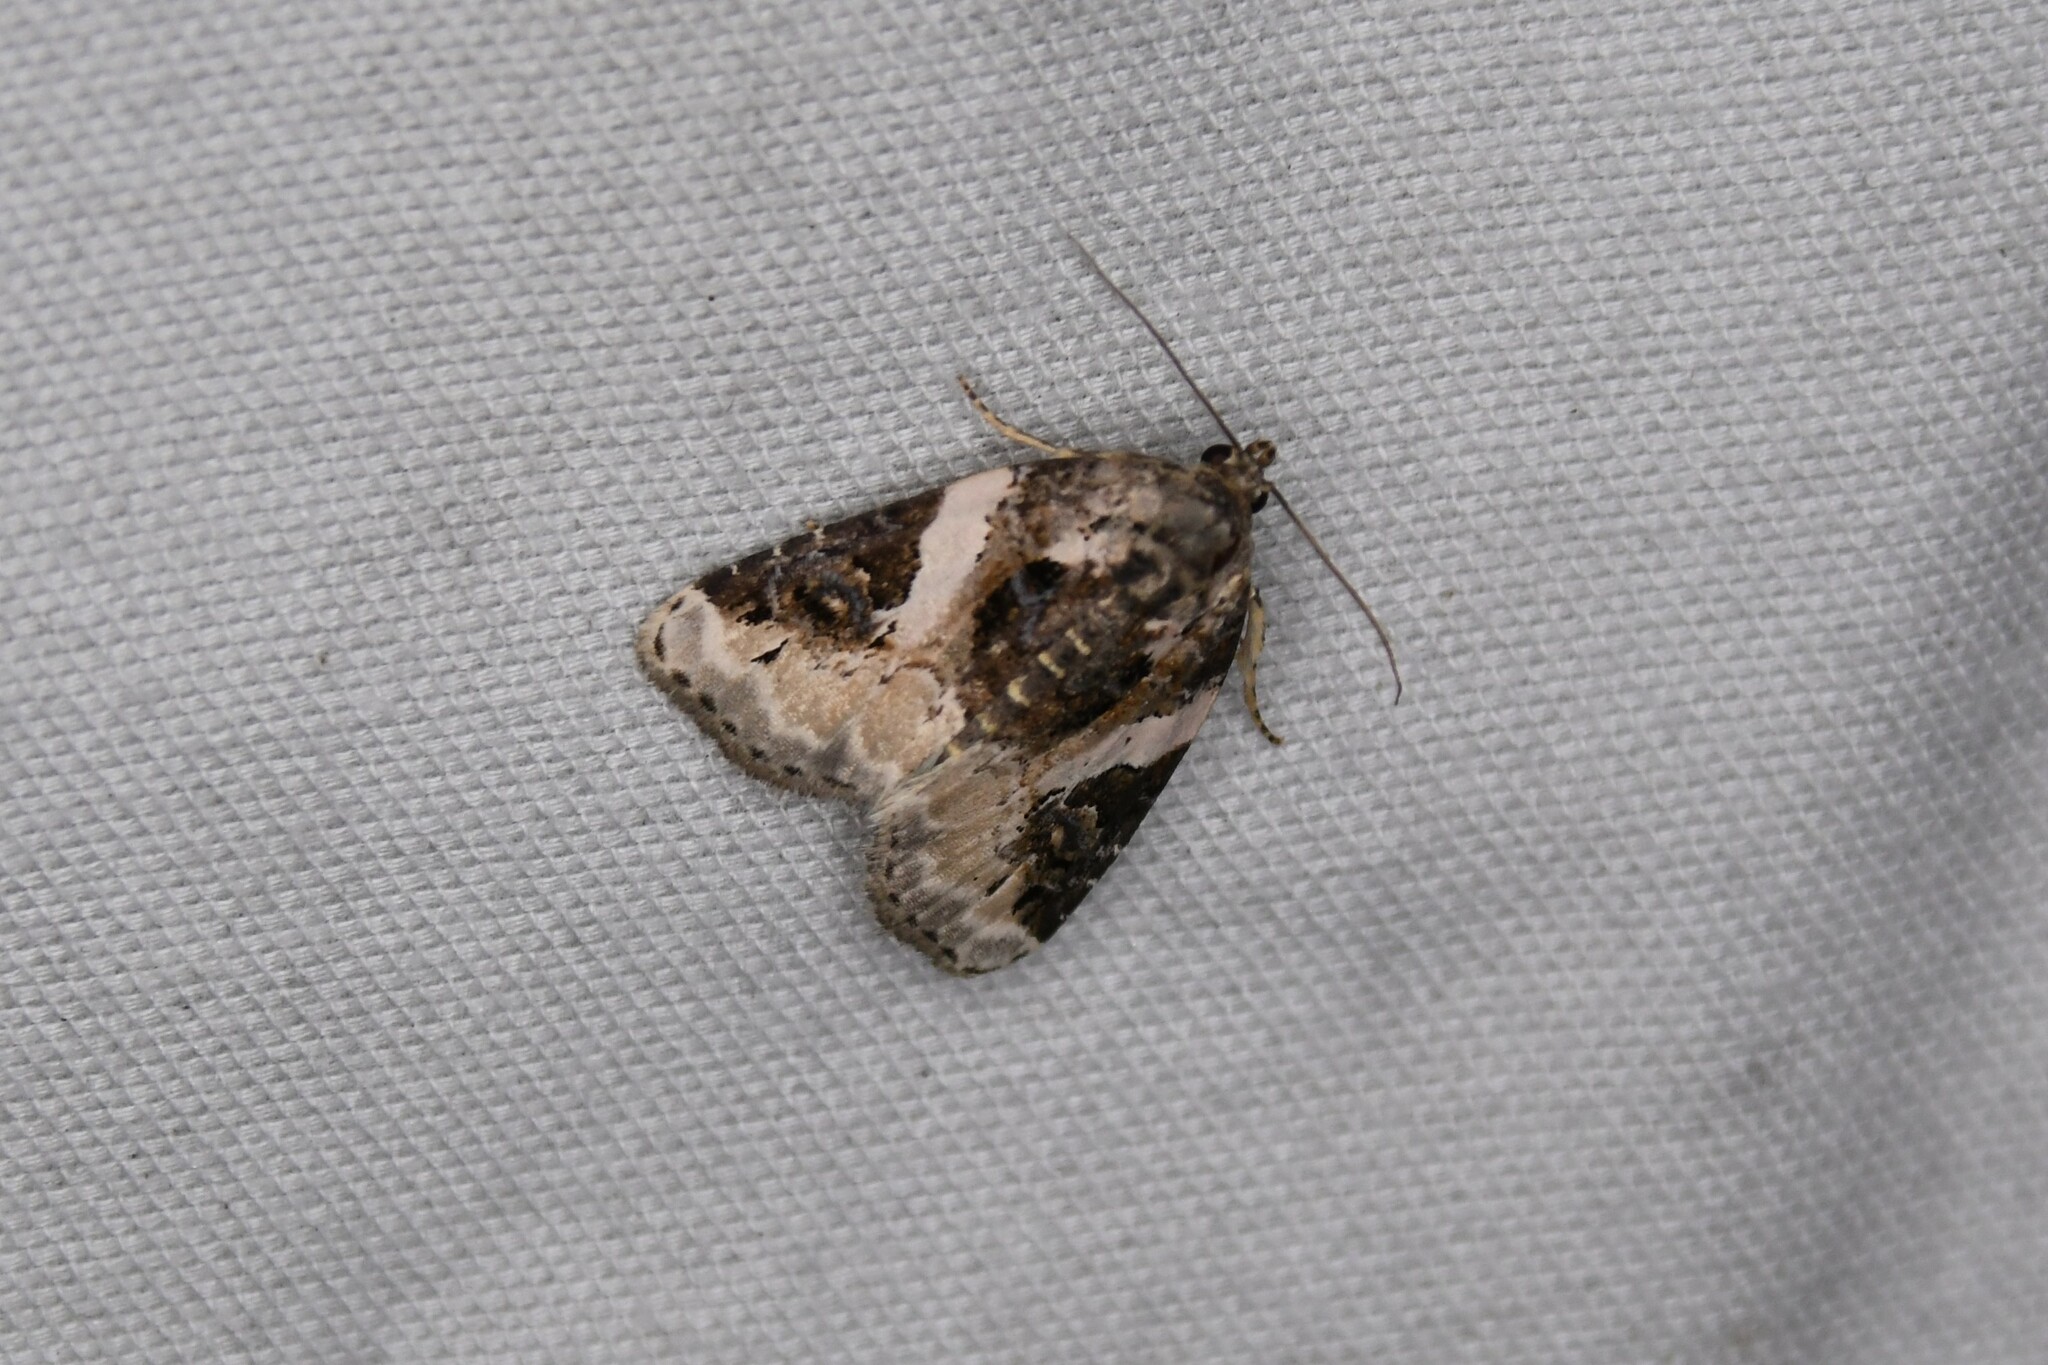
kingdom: Animalia
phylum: Arthropoda
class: Insecta
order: Lepidoptera
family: Noctuidae
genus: Pseudeustrotia
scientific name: Pseudeustrotia carneola
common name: Pink-barred lithacodia moth
